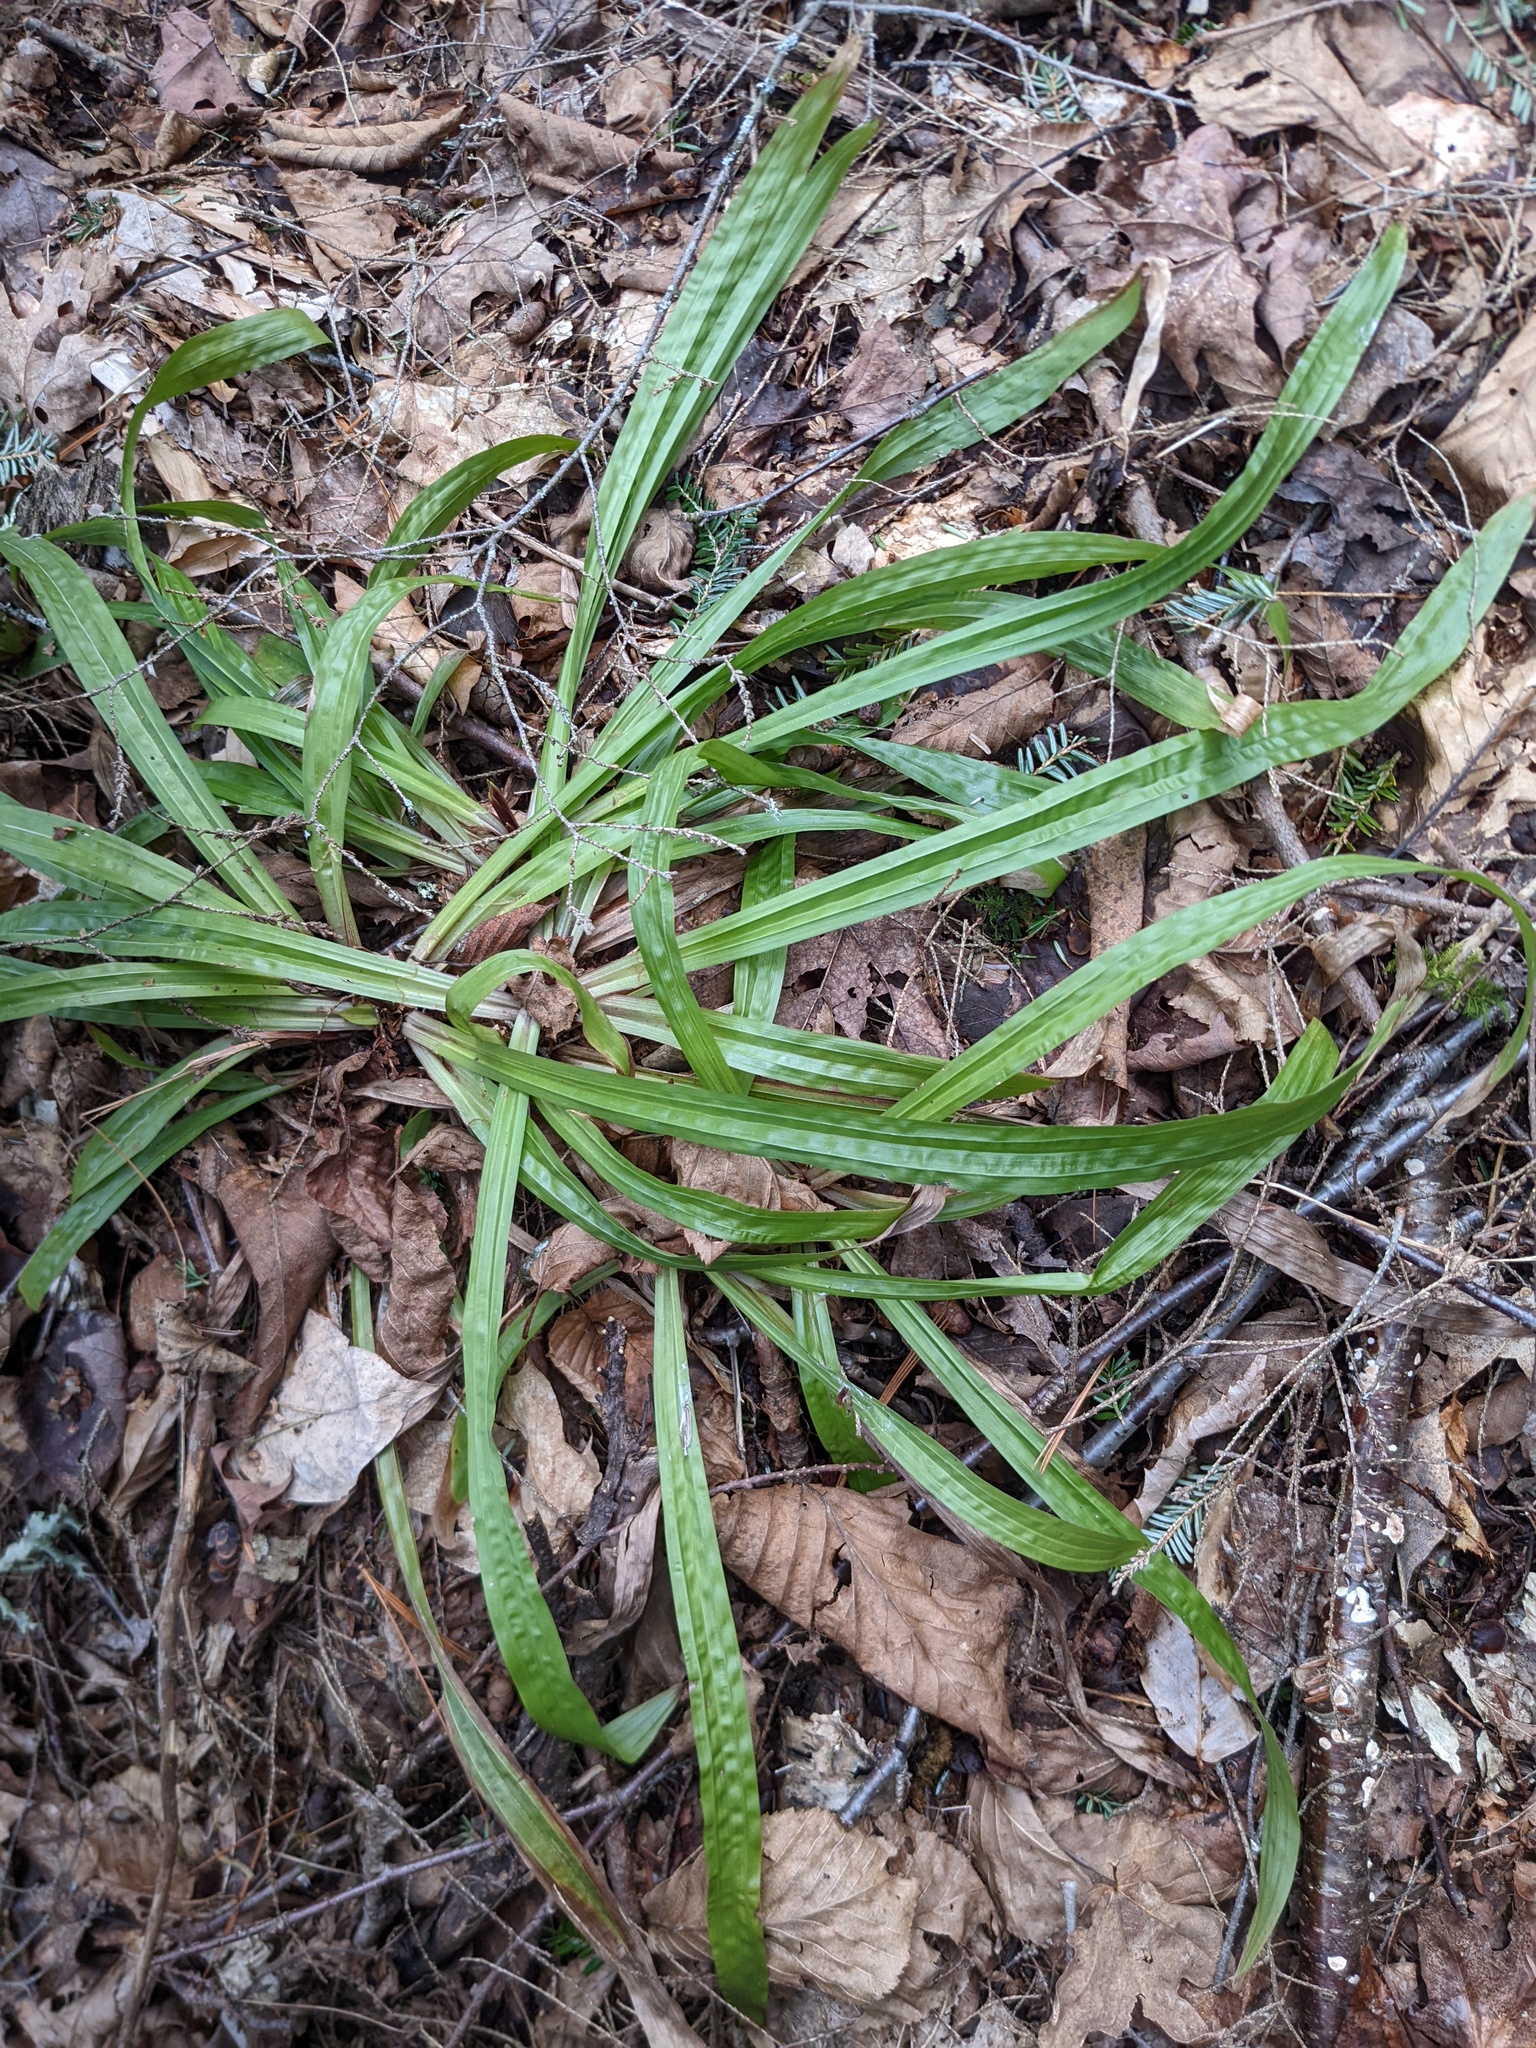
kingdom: Plantae
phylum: Tracheophyta
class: Liliopsida
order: Poales
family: Cyperaceae
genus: Carex
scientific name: Carex plantaginea
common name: Plantain-leaved sedge
